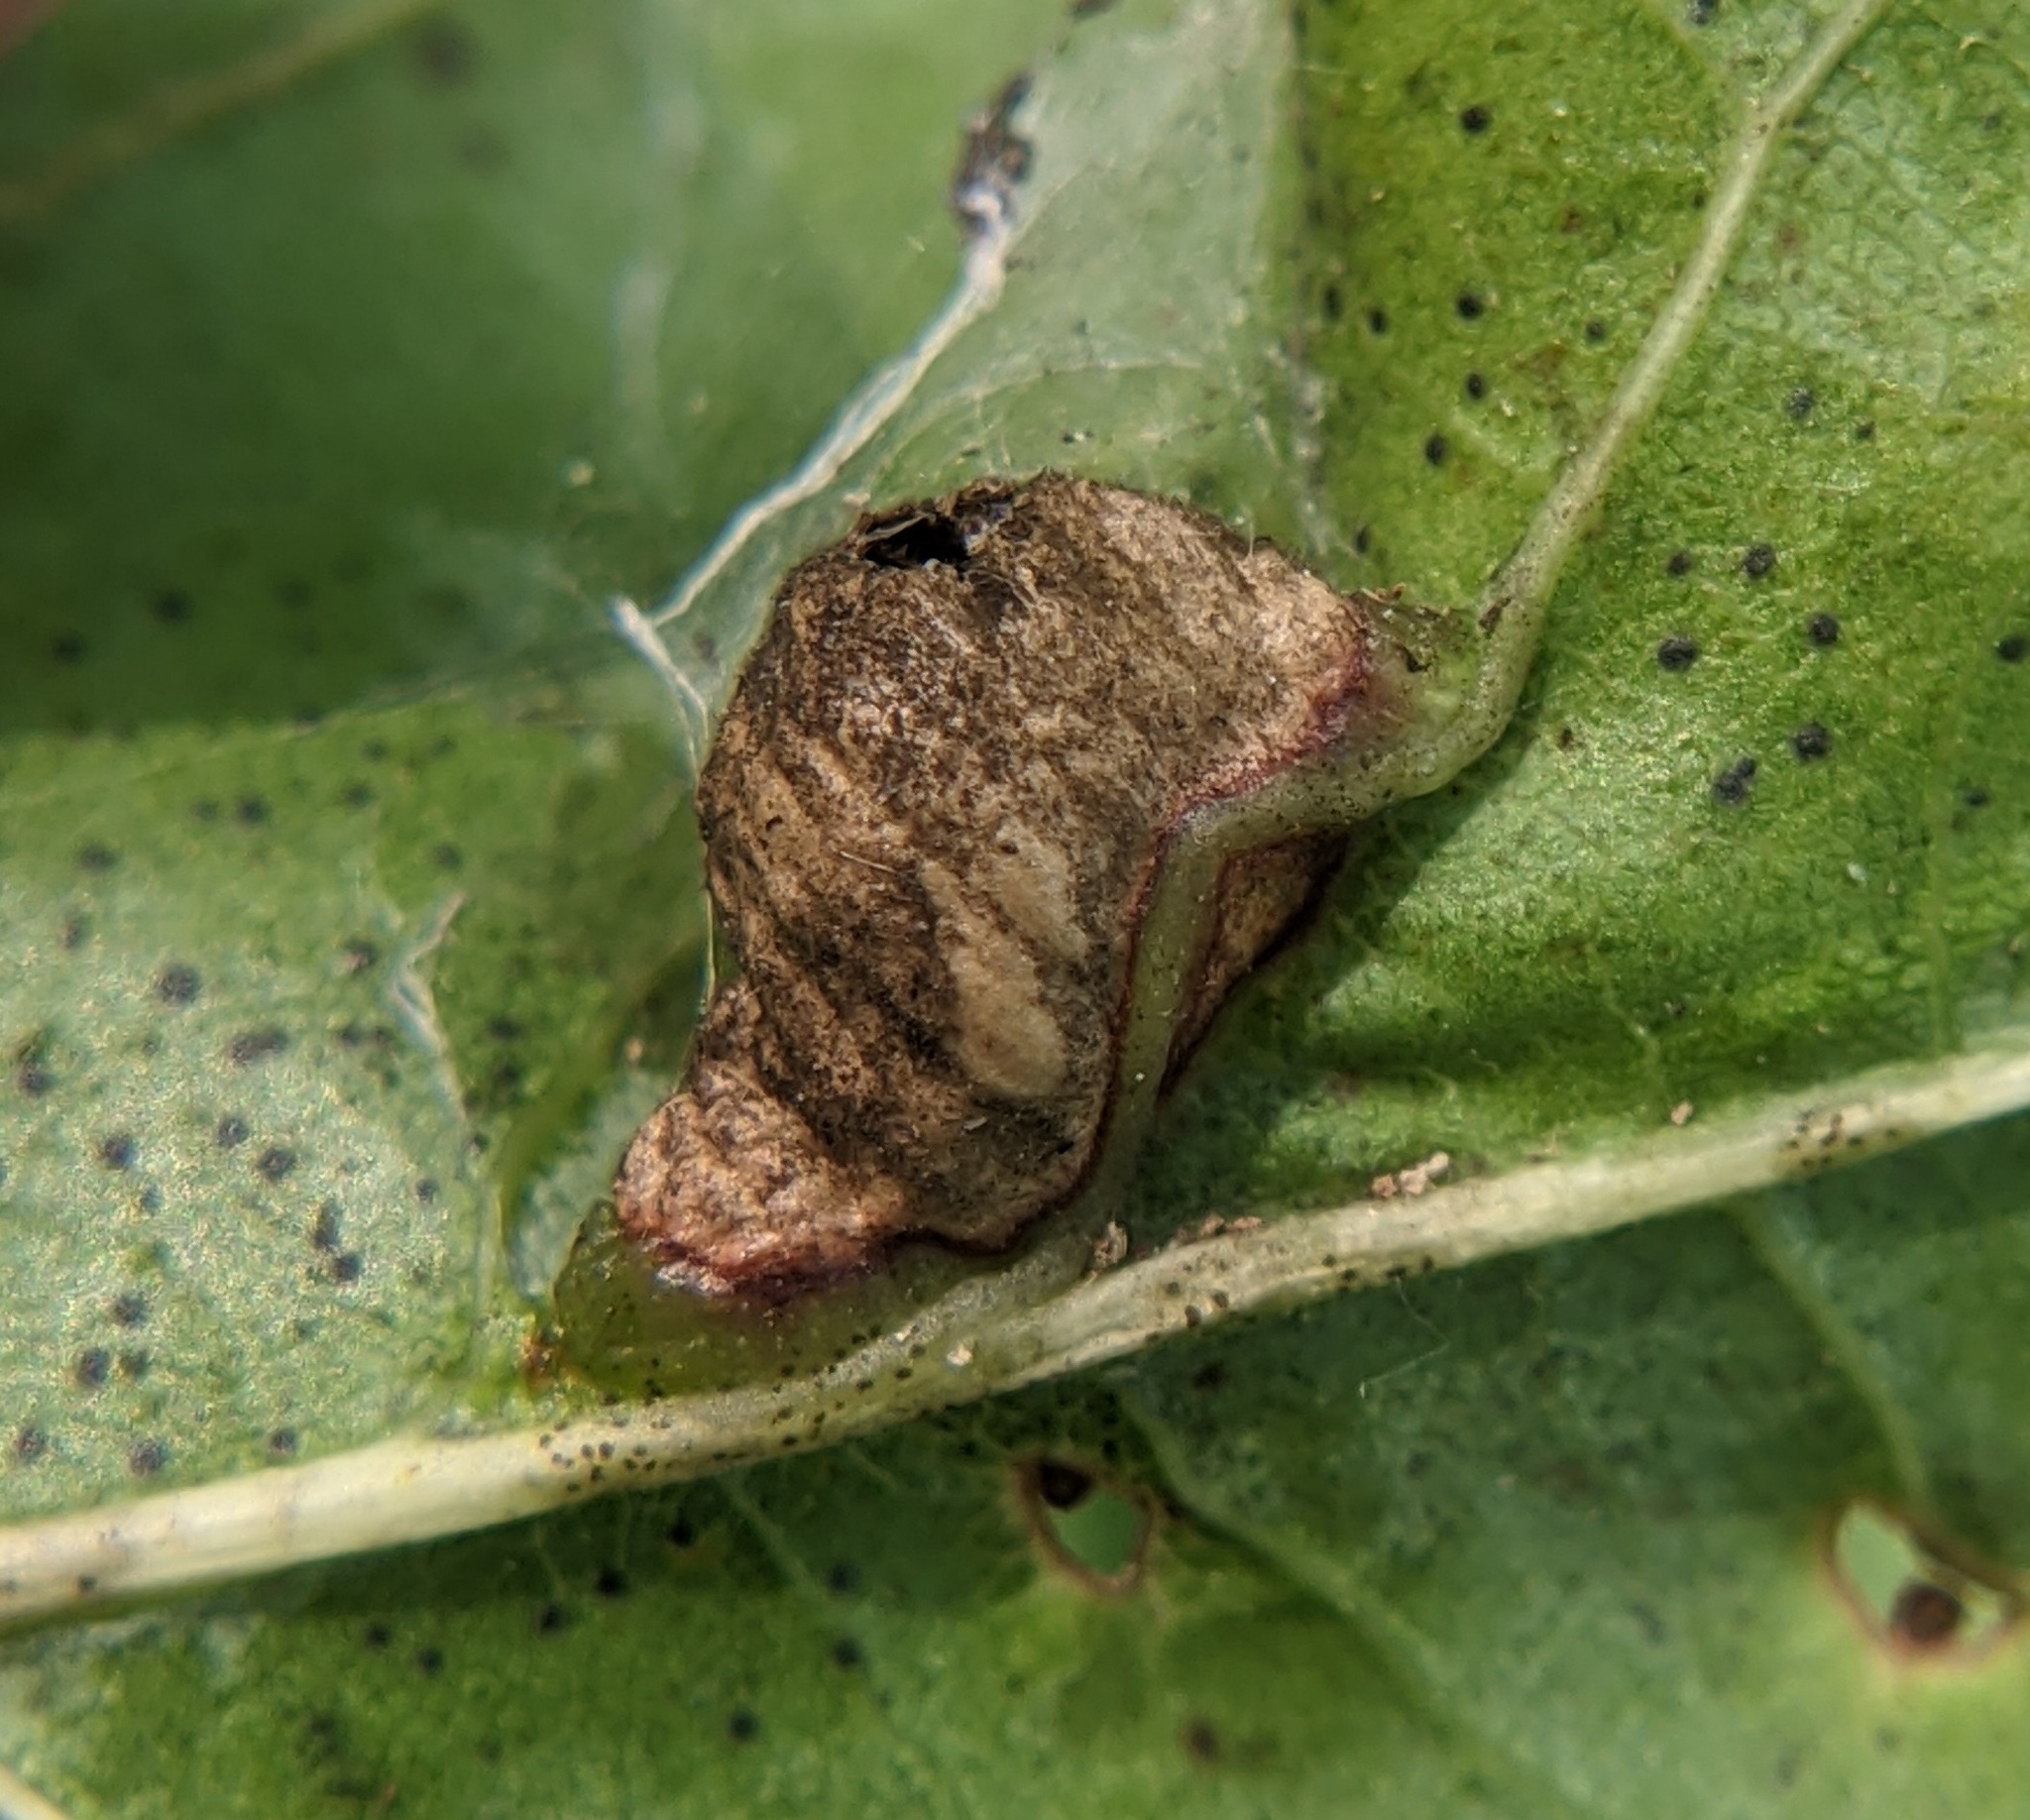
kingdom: Animalia
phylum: Arthropoda
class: Insecta
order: Diptera
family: Cecidomyiidae
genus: Macrodiplosis
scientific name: Macrodiplosis majalis
